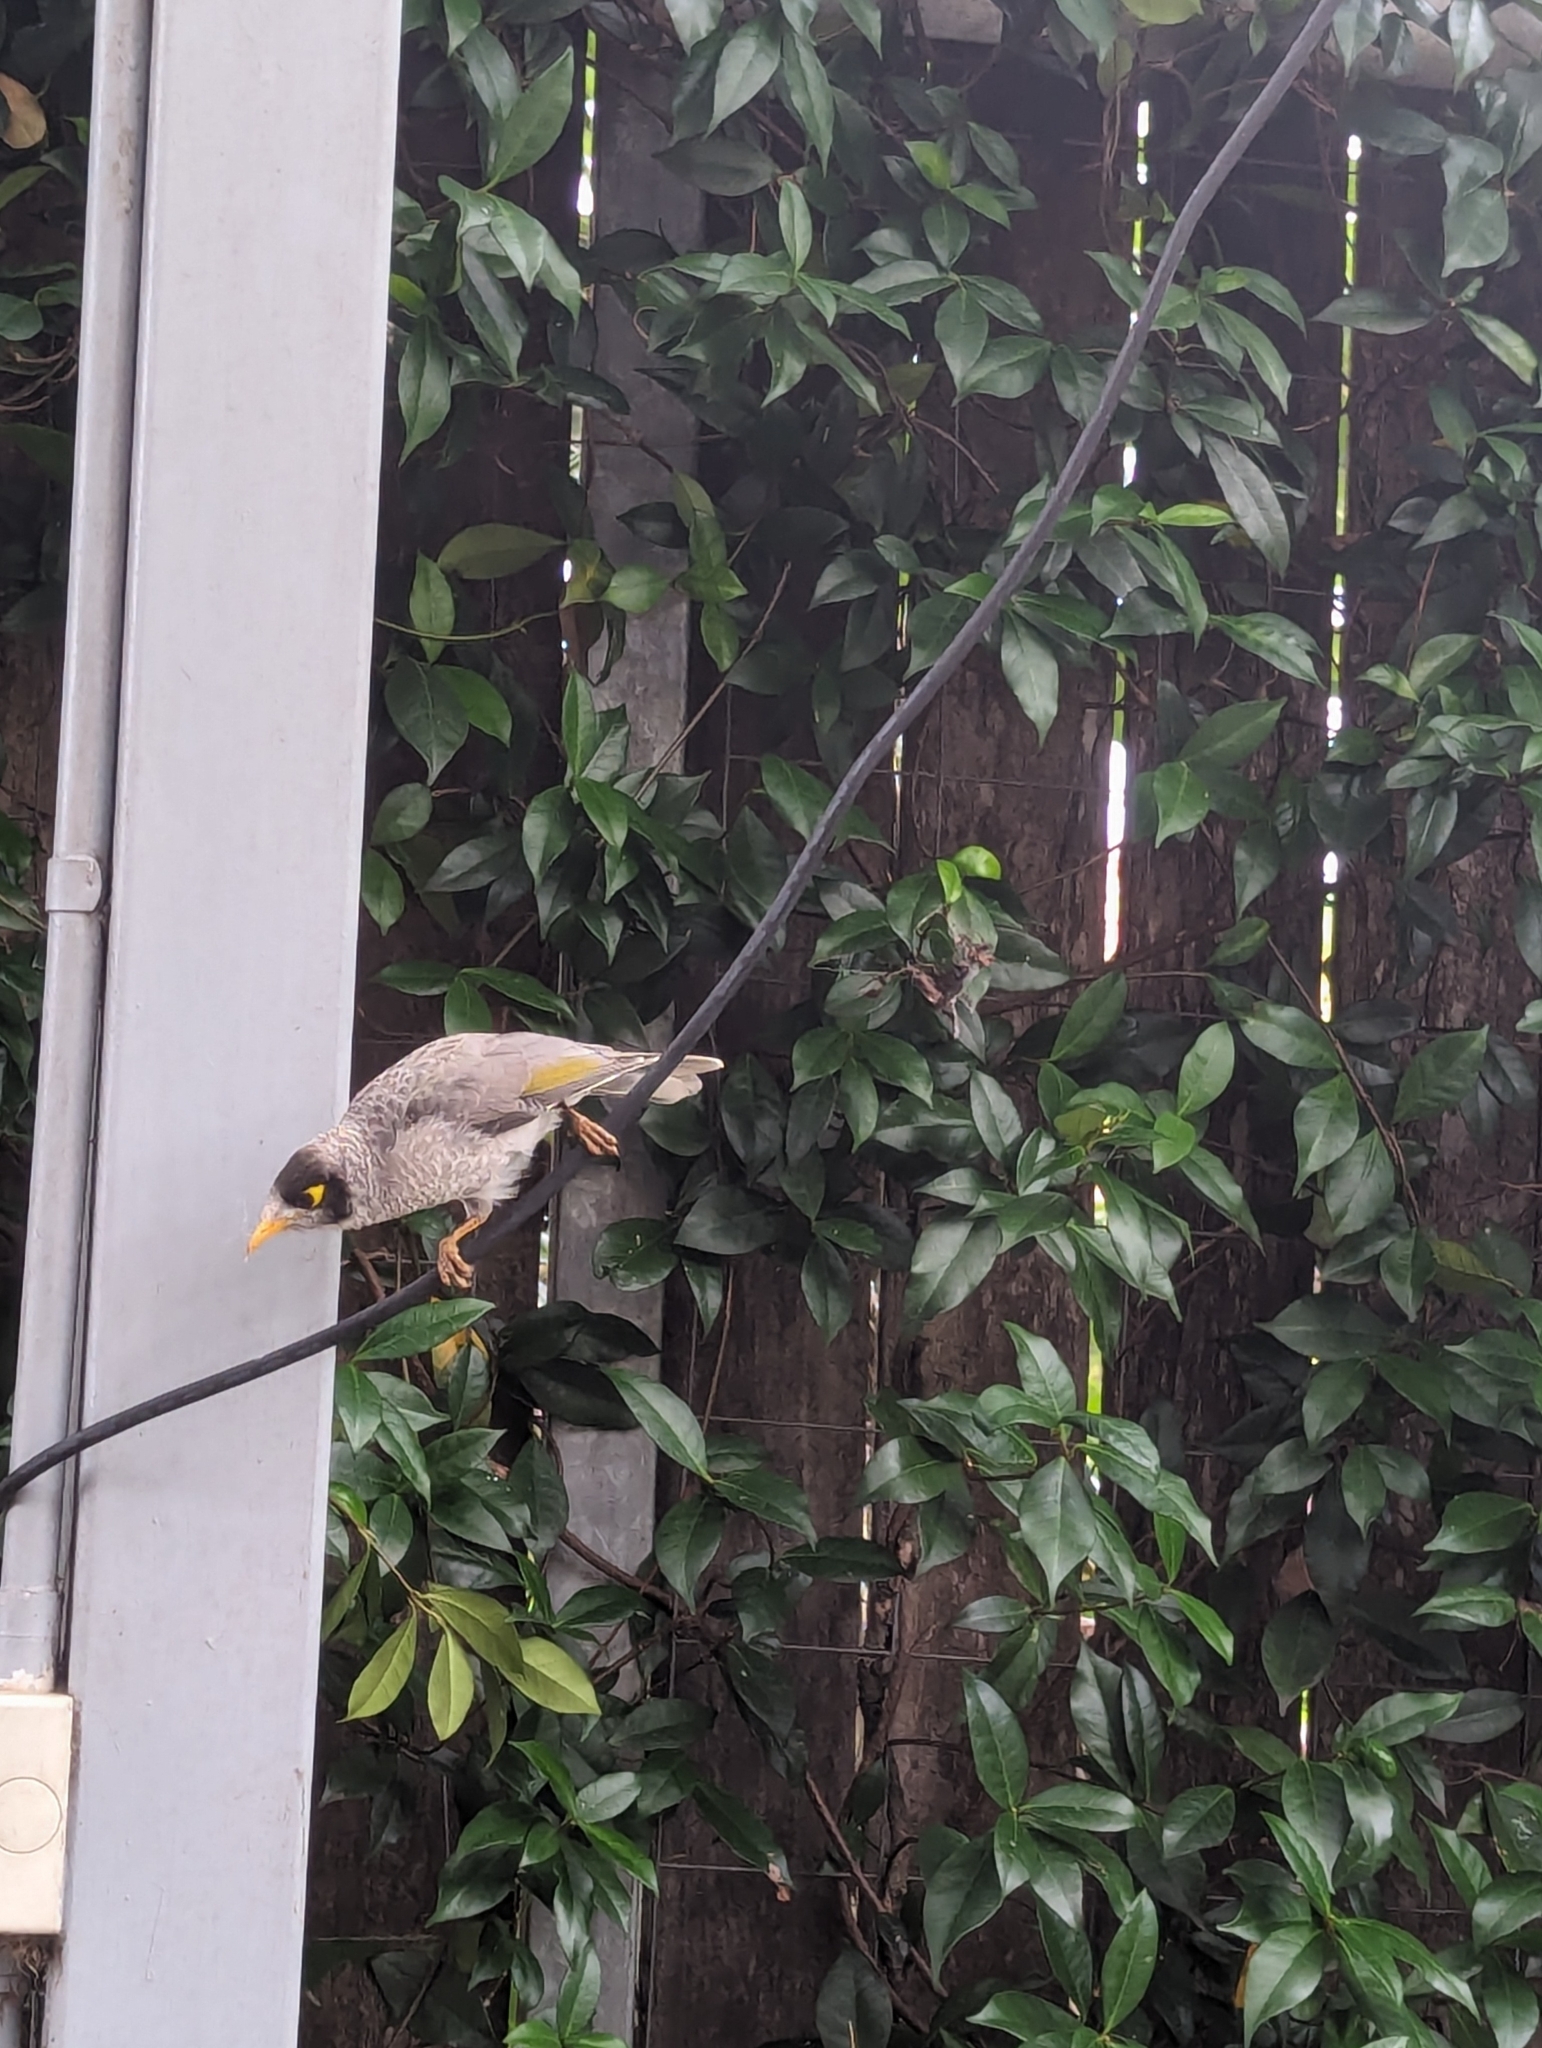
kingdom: Animalia
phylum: Chordata
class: Aves
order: Passeriformes
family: Meliphagidae
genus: Manorina
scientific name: Manorina melanocephala
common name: Noisy miner
